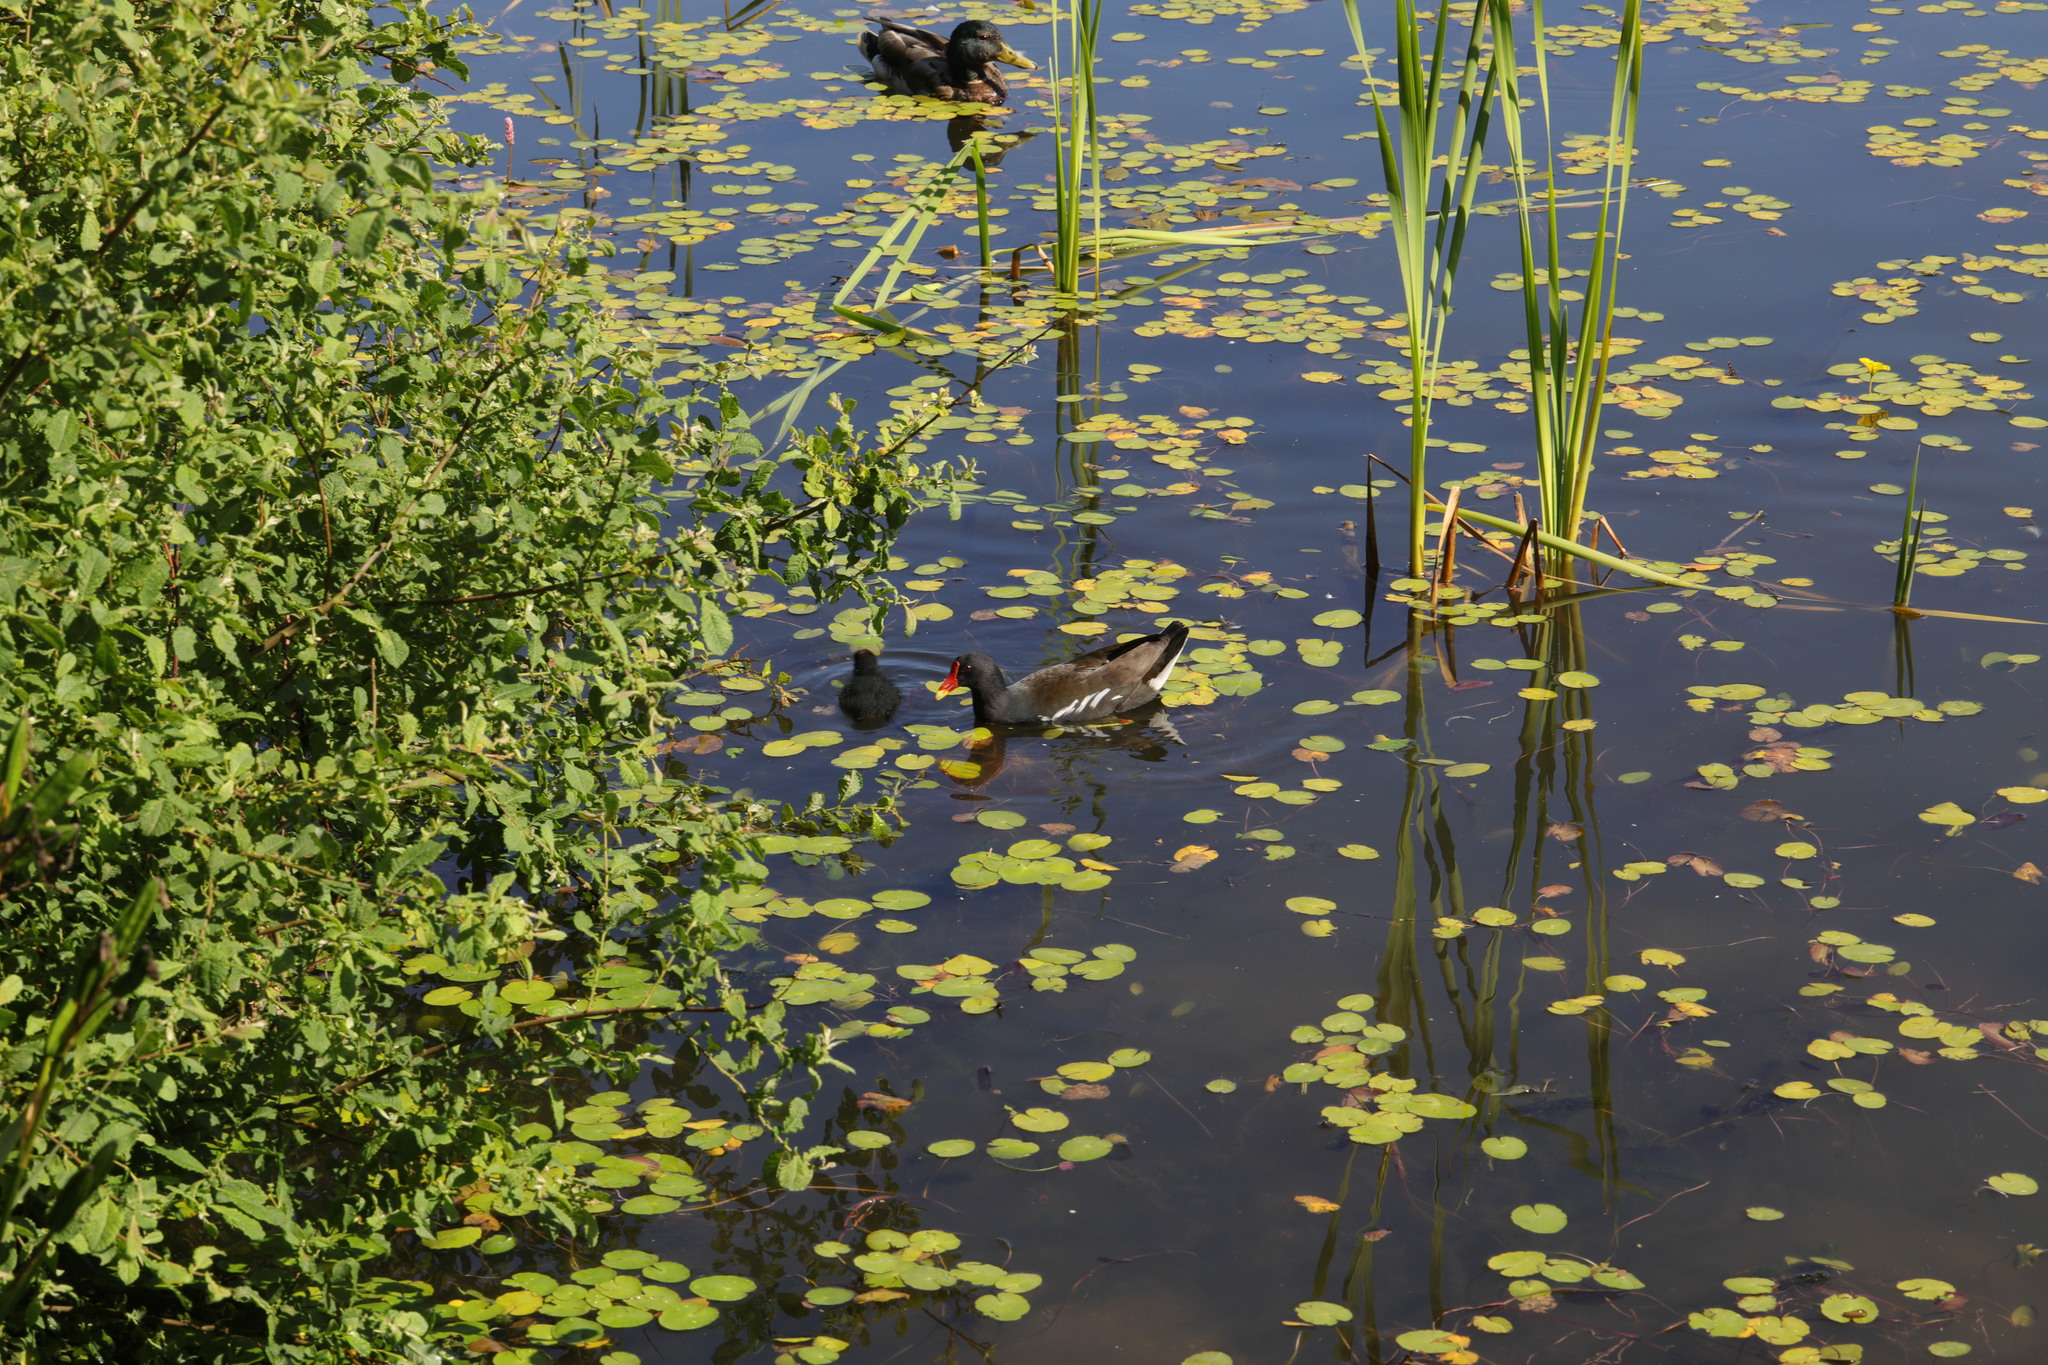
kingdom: Animalia
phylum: Chordata
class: Aves
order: Gruiformes
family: Rallidae
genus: Gallinula
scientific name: Gallinula chloropus
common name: Common moorhen
